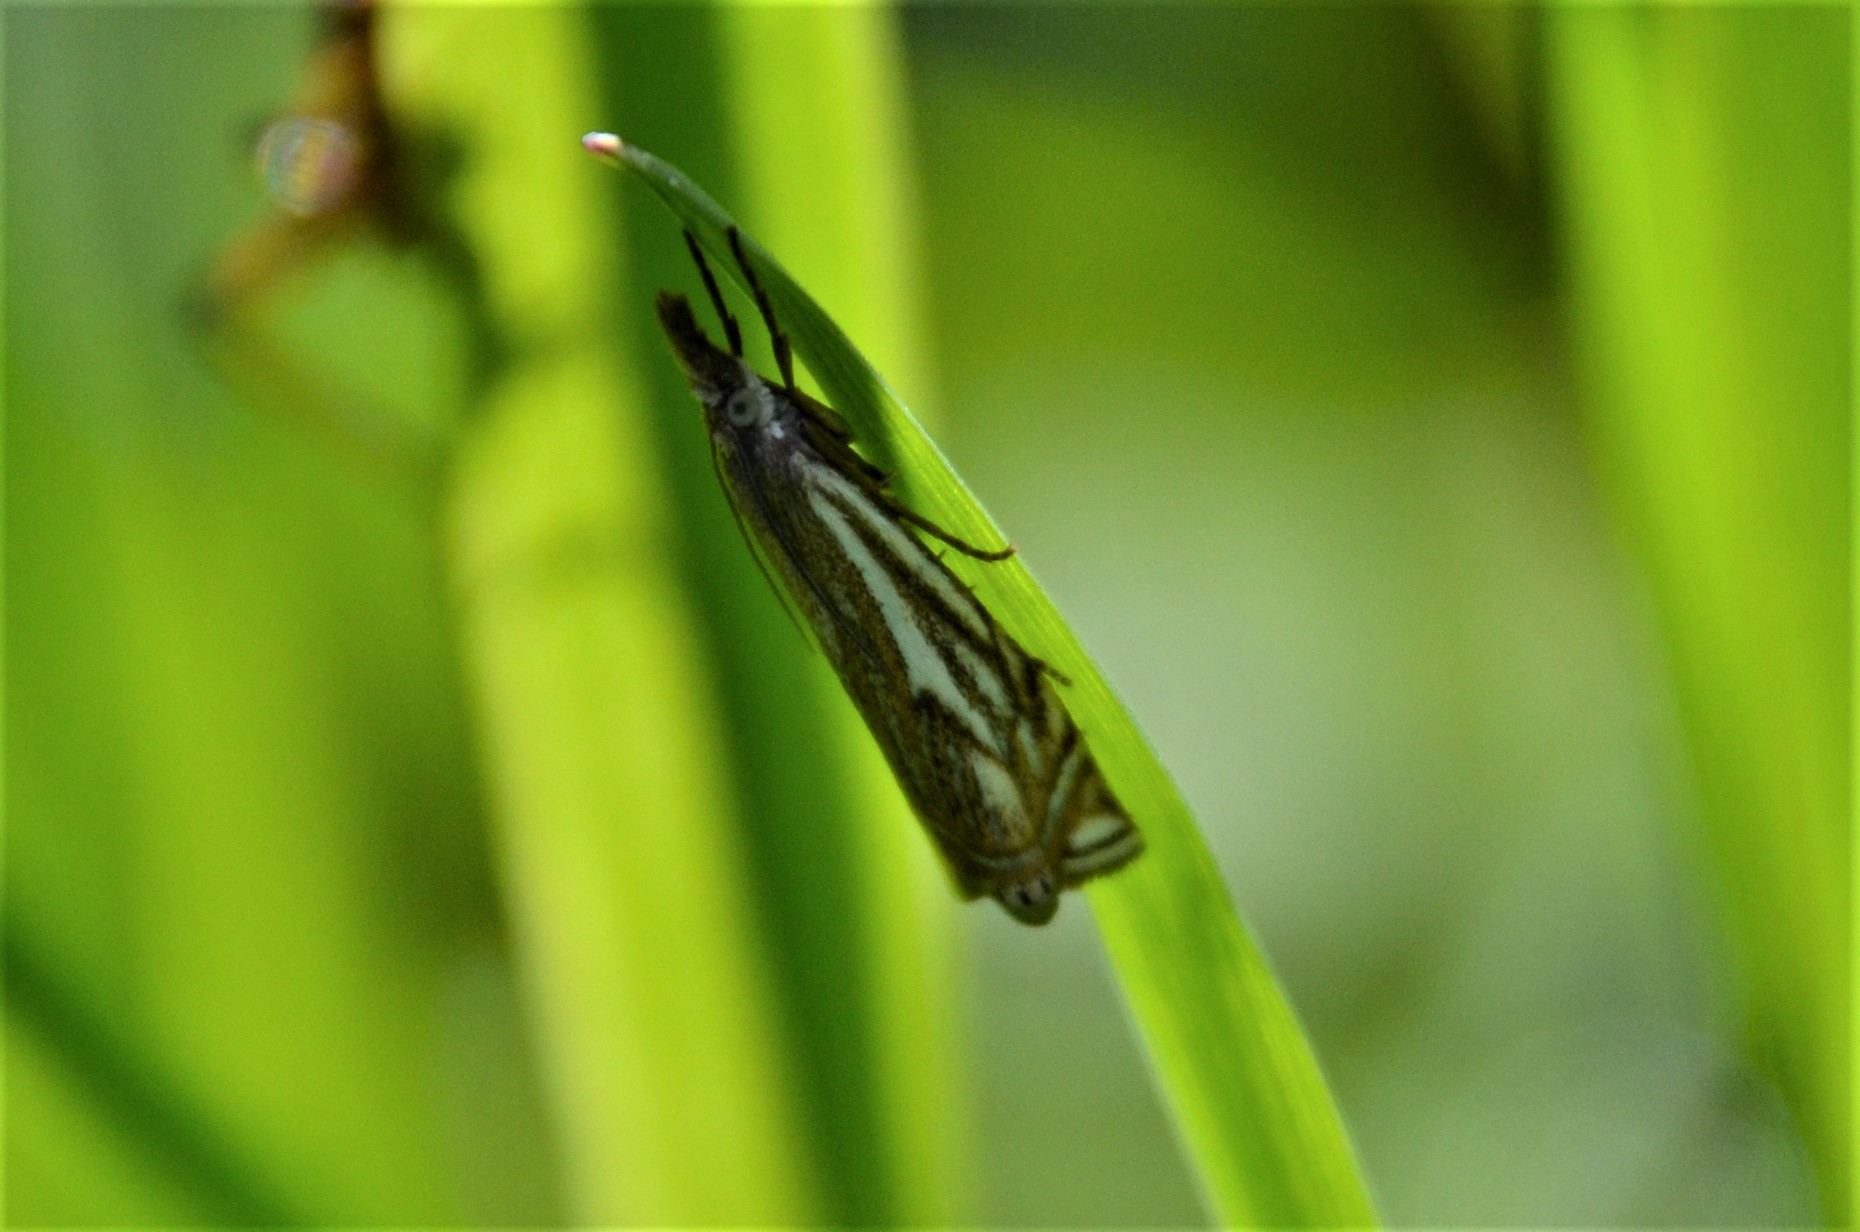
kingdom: Animalia
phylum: Arthropoda
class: Insecta
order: Lepidoptera
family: Crambidae
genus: Crambus
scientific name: Crambus nemorella
